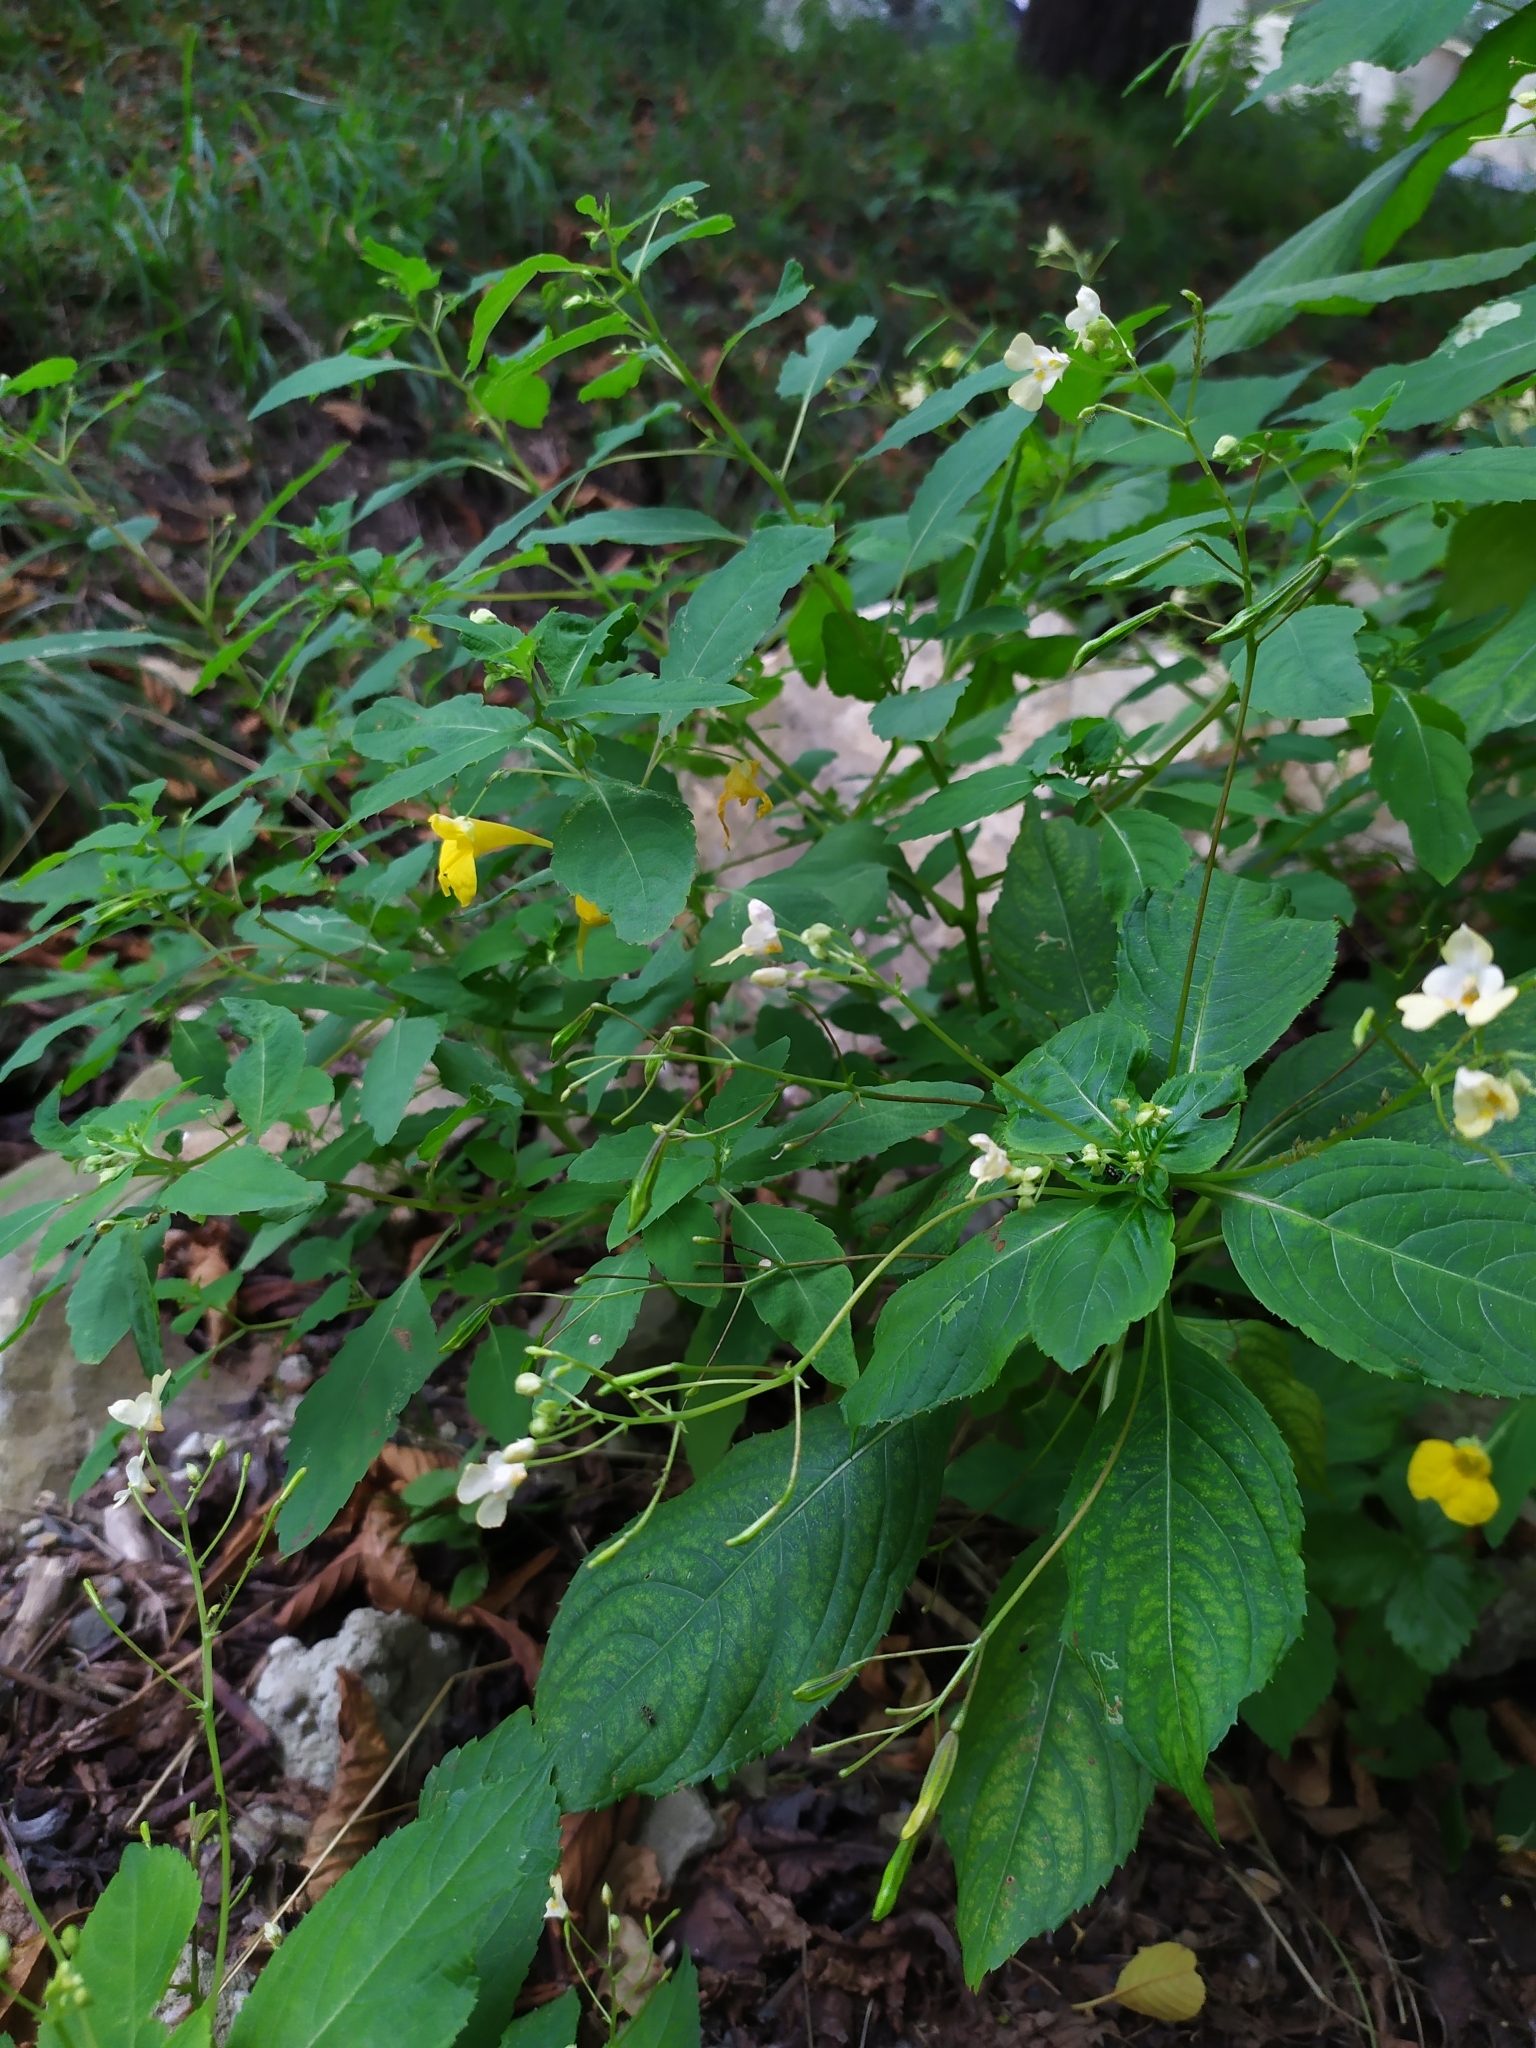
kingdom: Plantae
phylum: Tracheophyta
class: Magnoliopsida
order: Ericales
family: Balsaminaceae
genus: Impatiens
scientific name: Impatiens parviflora
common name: Small balsam
